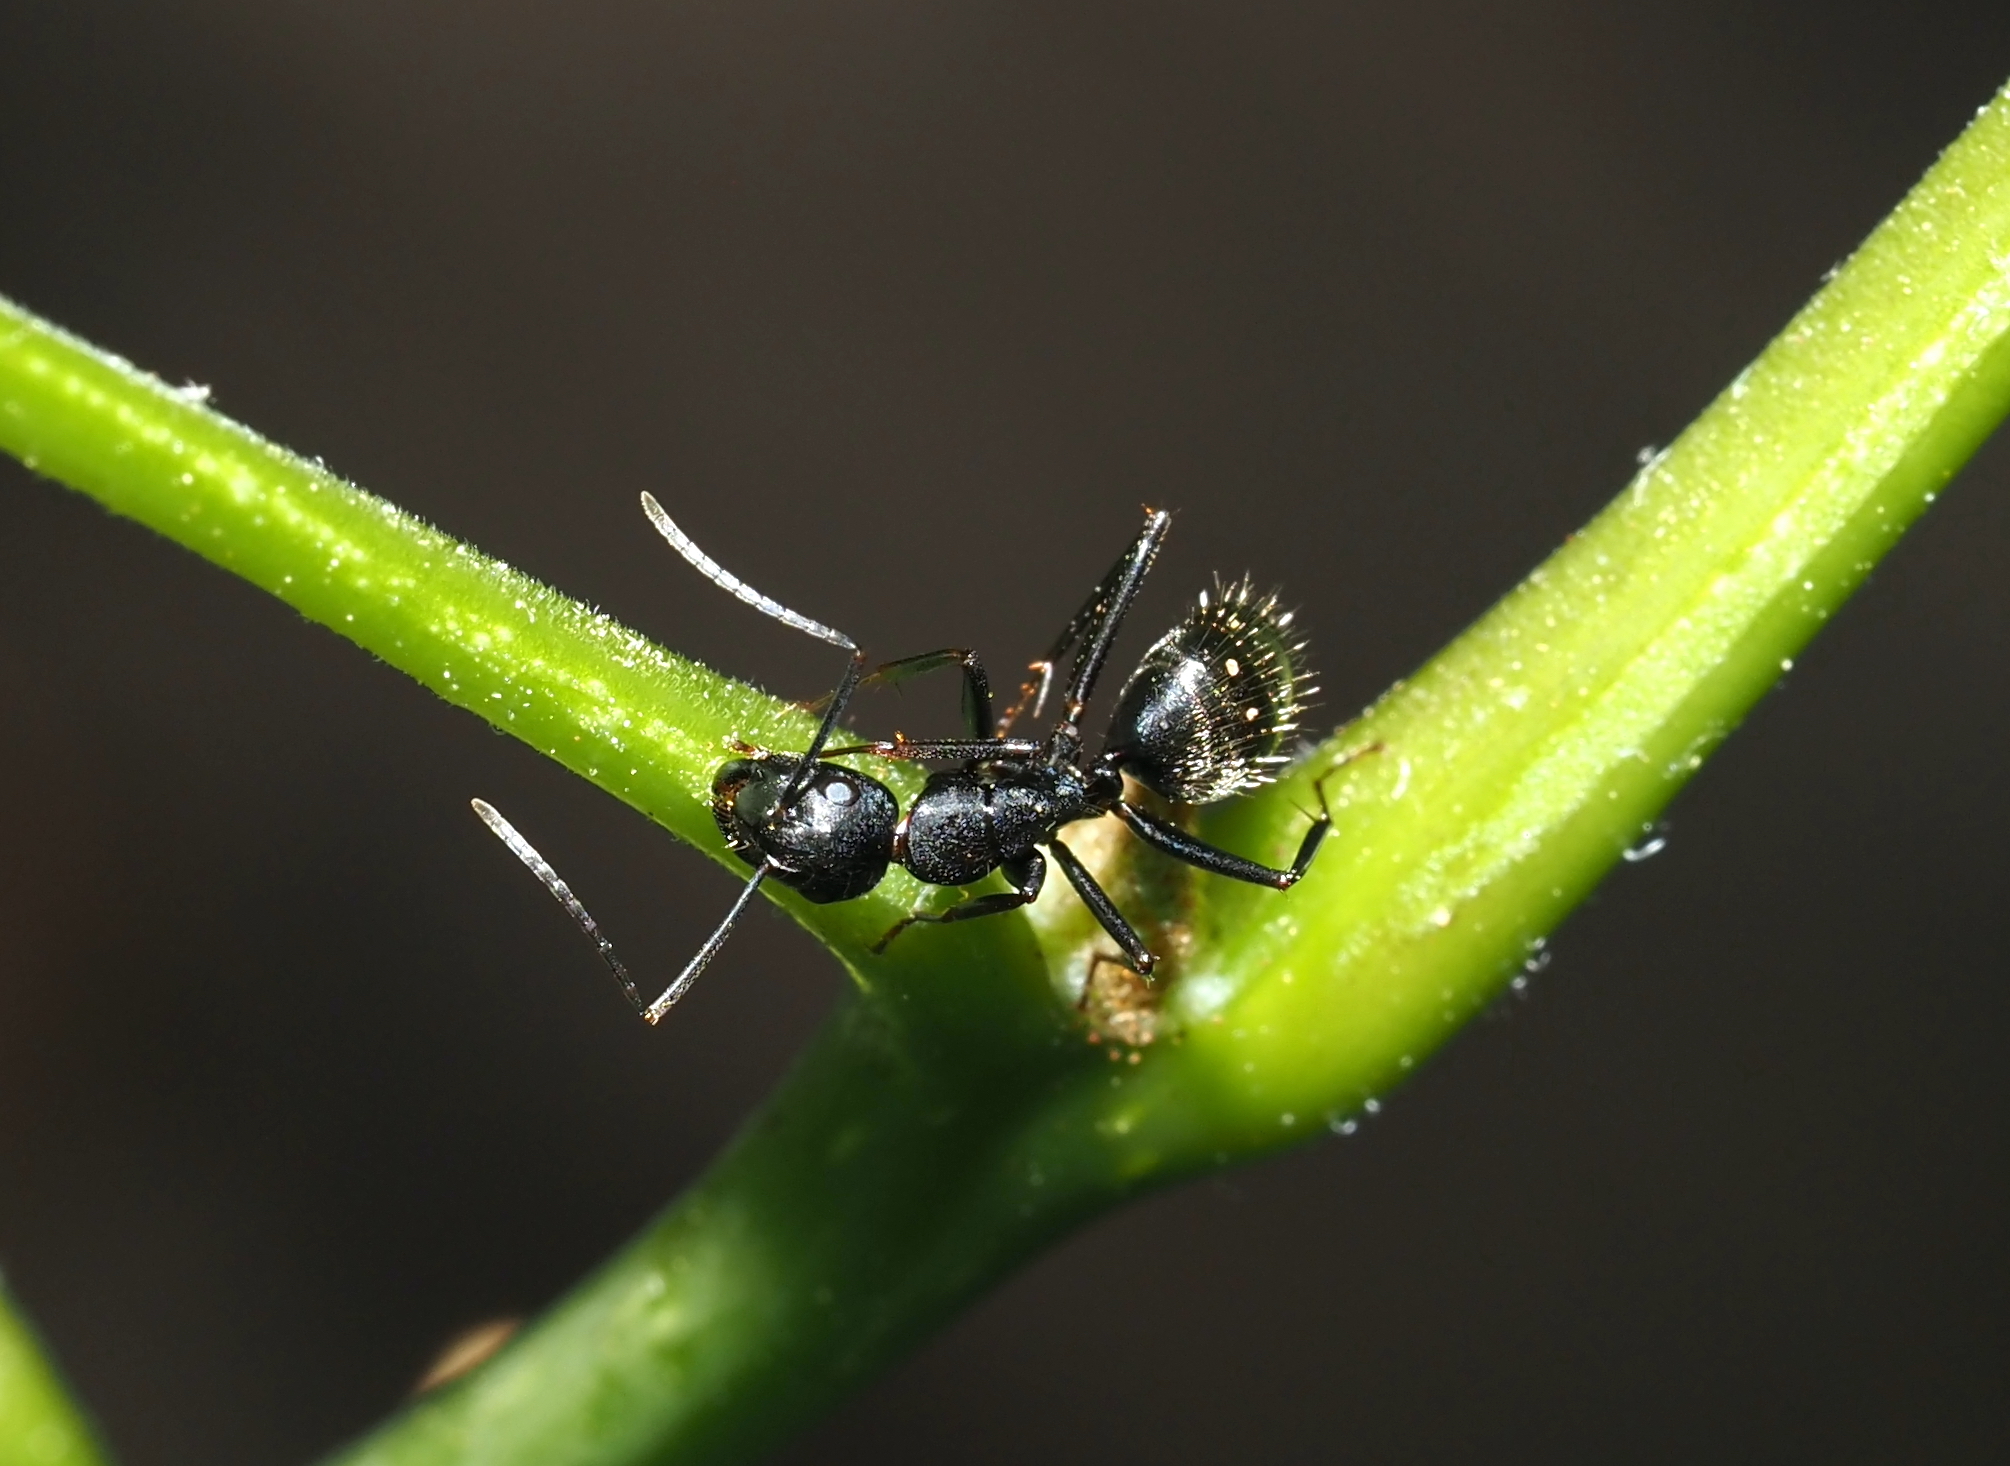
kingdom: Animalia
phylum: Arthropoda
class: Insecta
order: Hymenoptera
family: Formicidae
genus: Camponotus
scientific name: Camponotus pennsylvanicus
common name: Black carpenter ant
